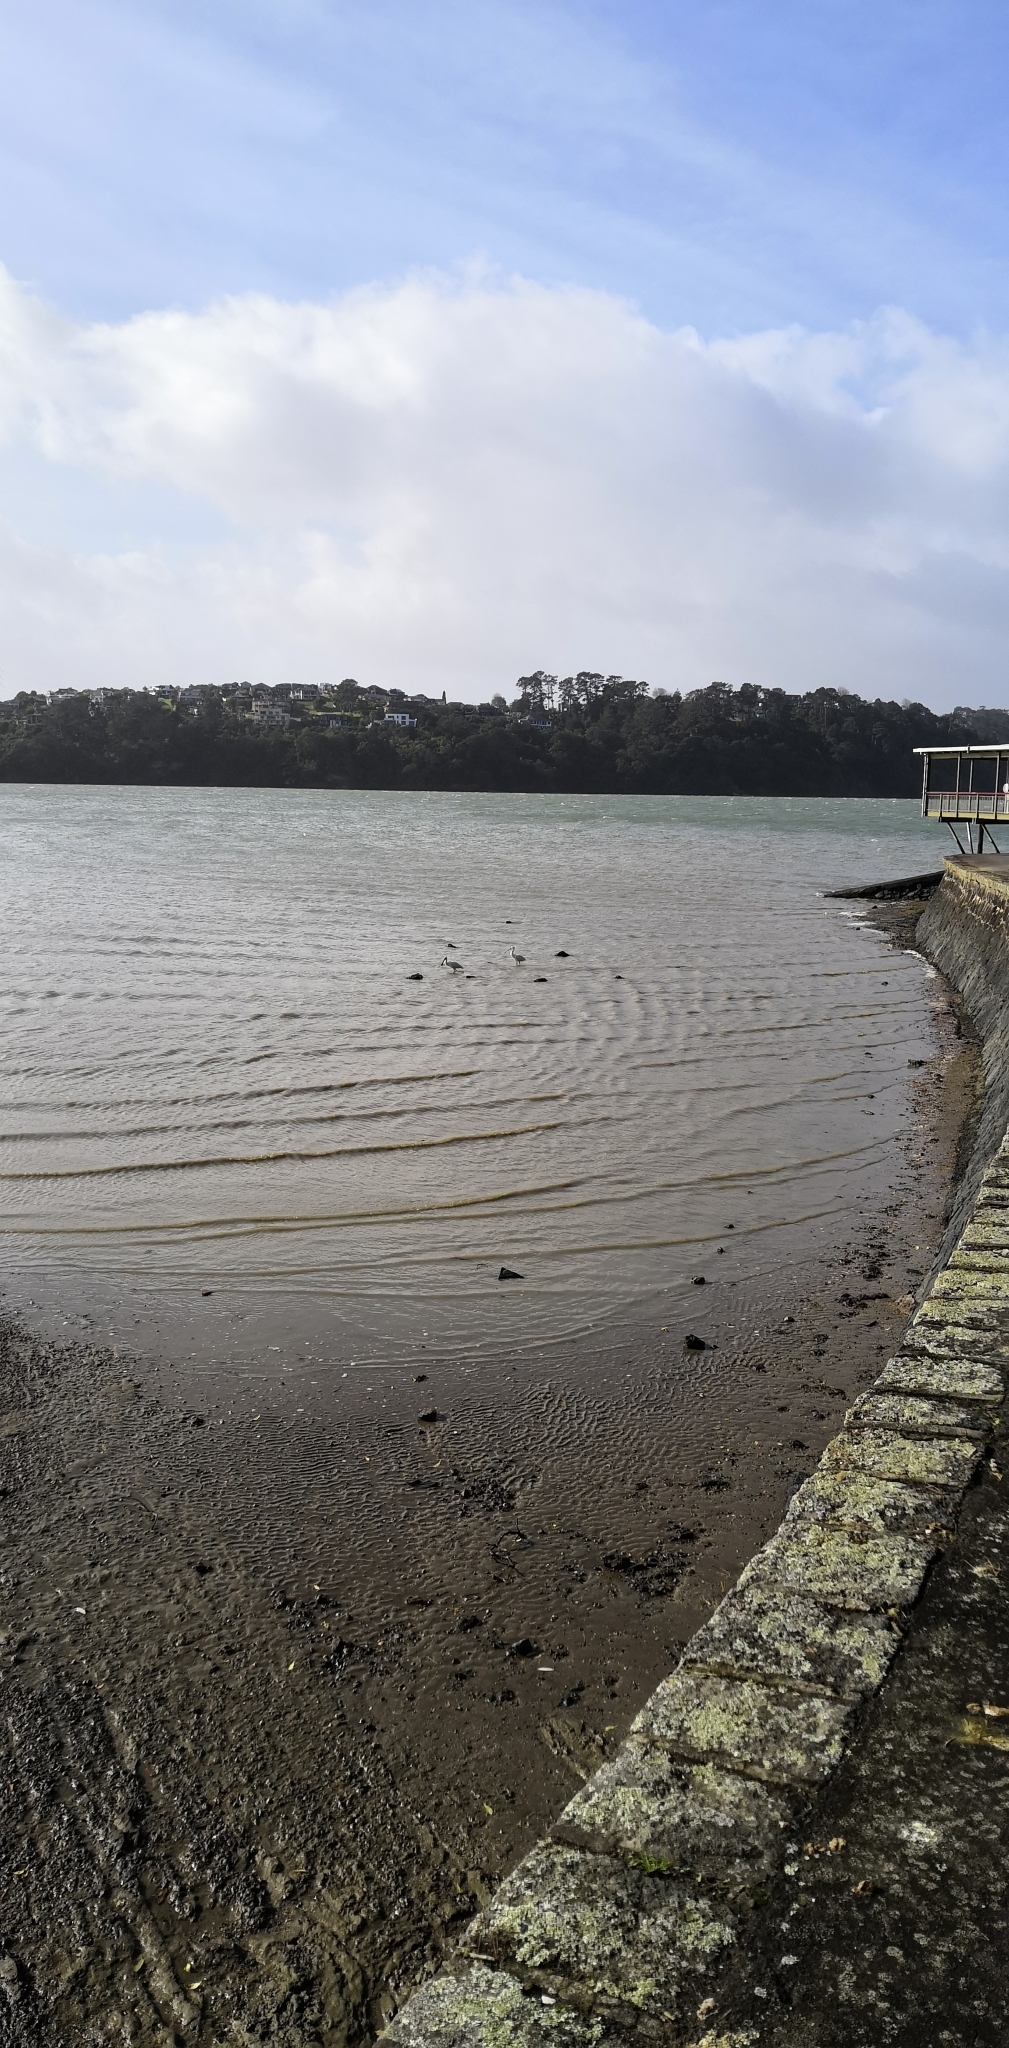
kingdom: Animalia
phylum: Chordata
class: Aves
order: Pelecaniformes
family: Threskiornithidae
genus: Platalea
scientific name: Platalea regia
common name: Royal spoonbill
